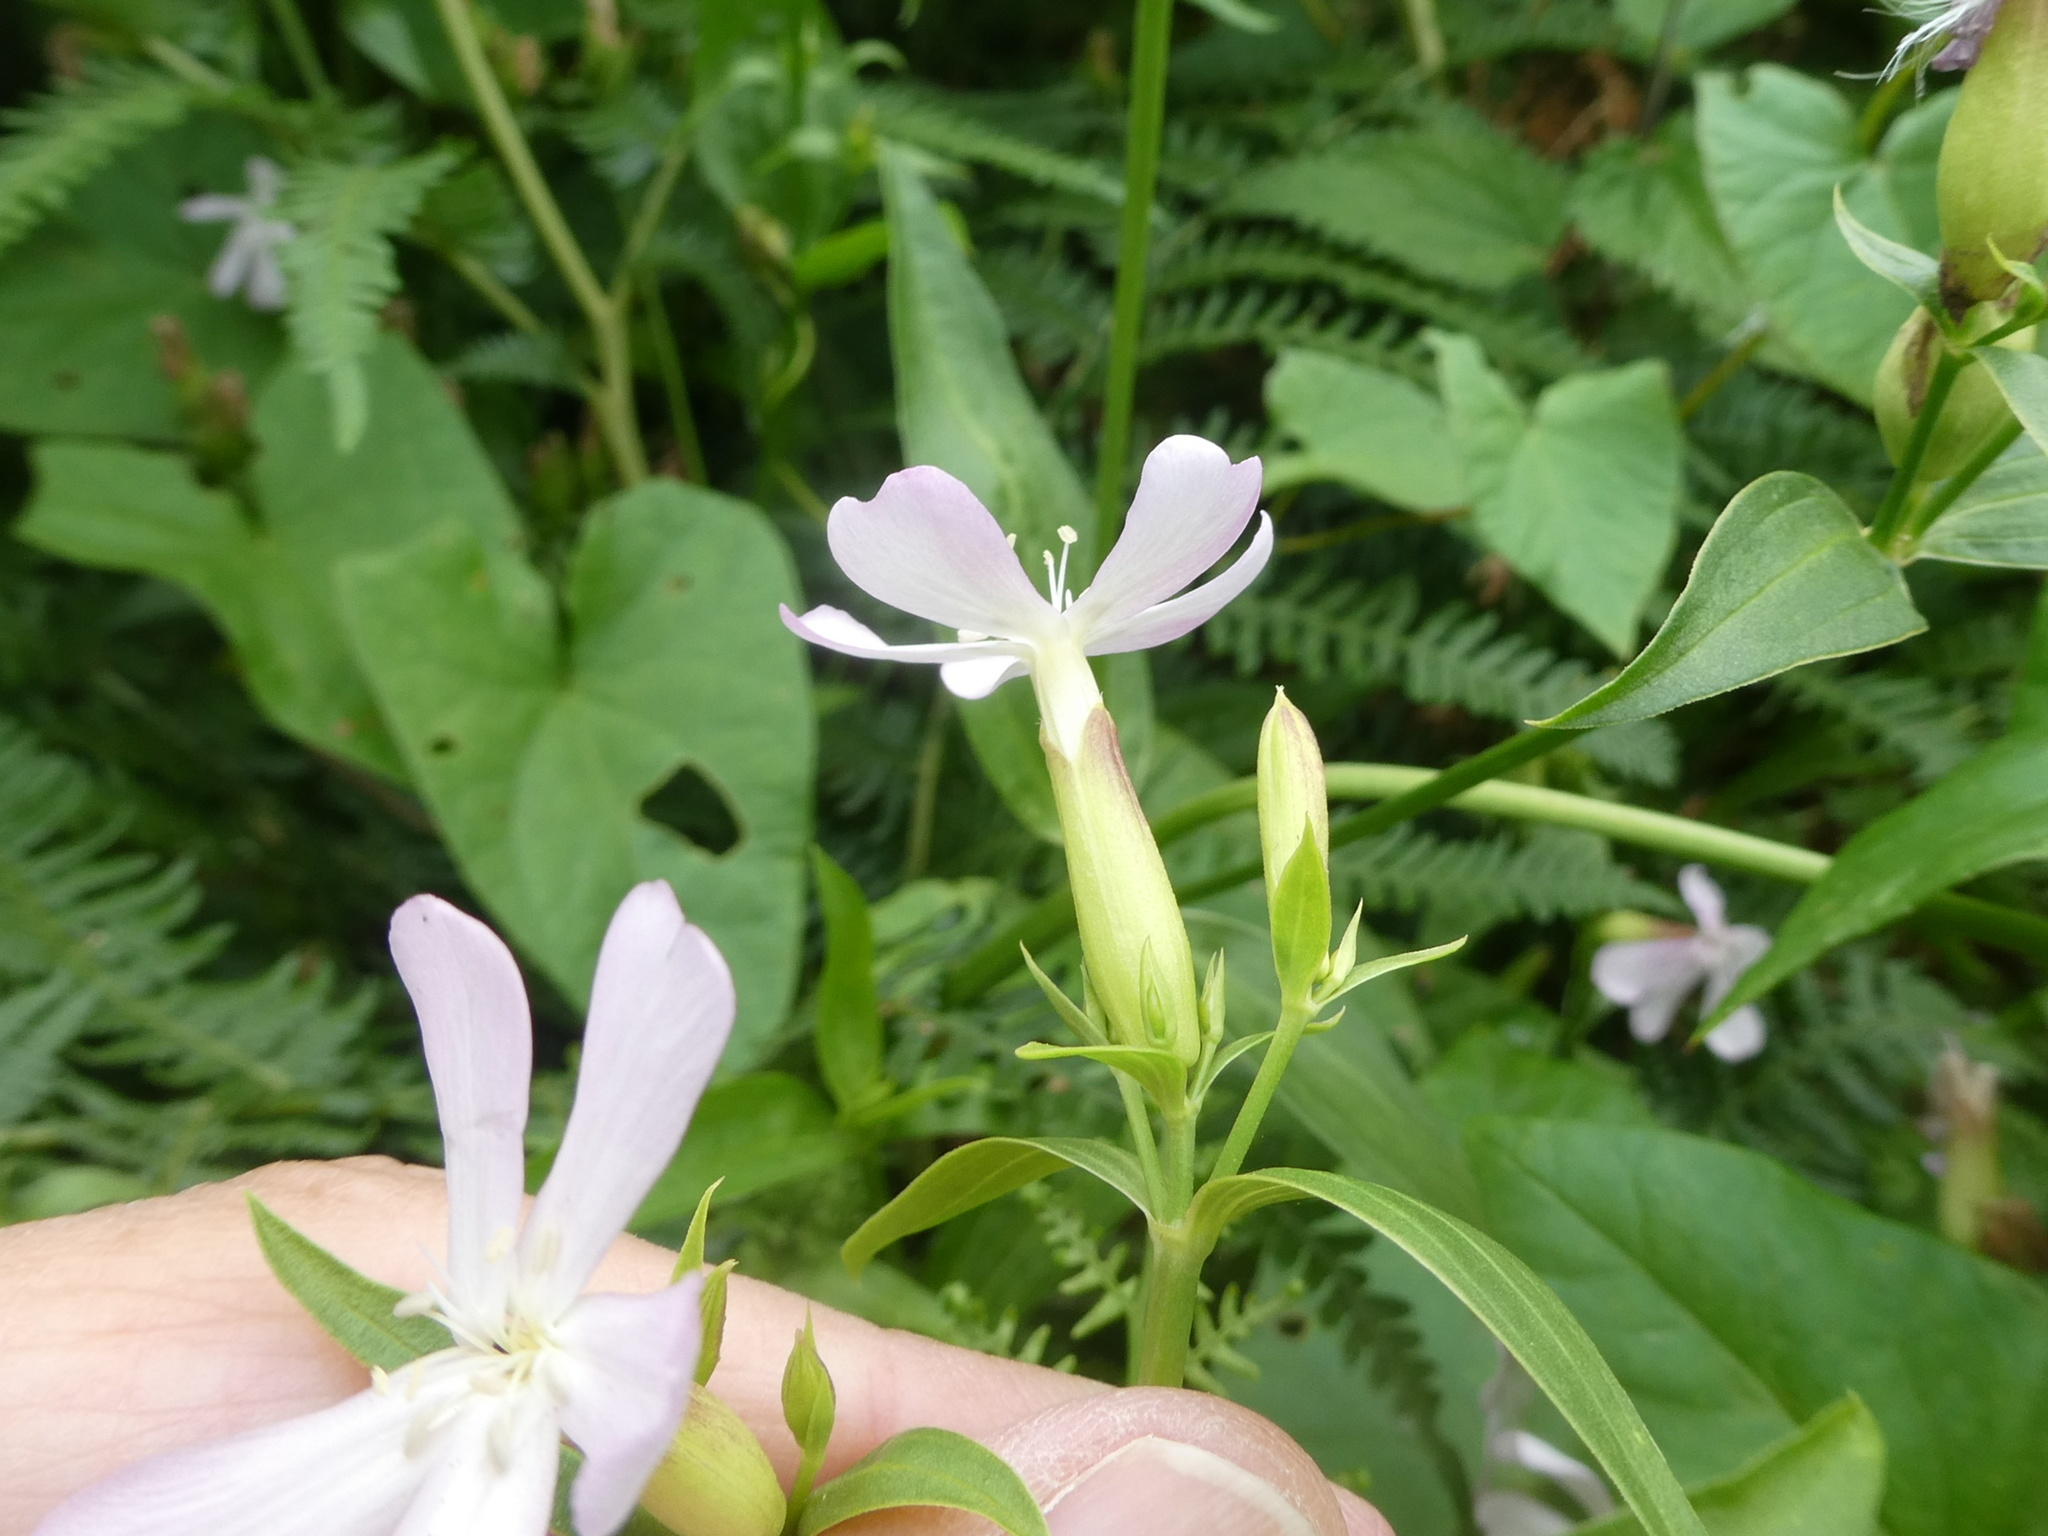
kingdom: Plantae
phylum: Tracheophyta
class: Magnoliopsida
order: Caryophyllales
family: Caryophyllaceae
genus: Saponaria
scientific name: Saponaria officinalis
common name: Soapwort
